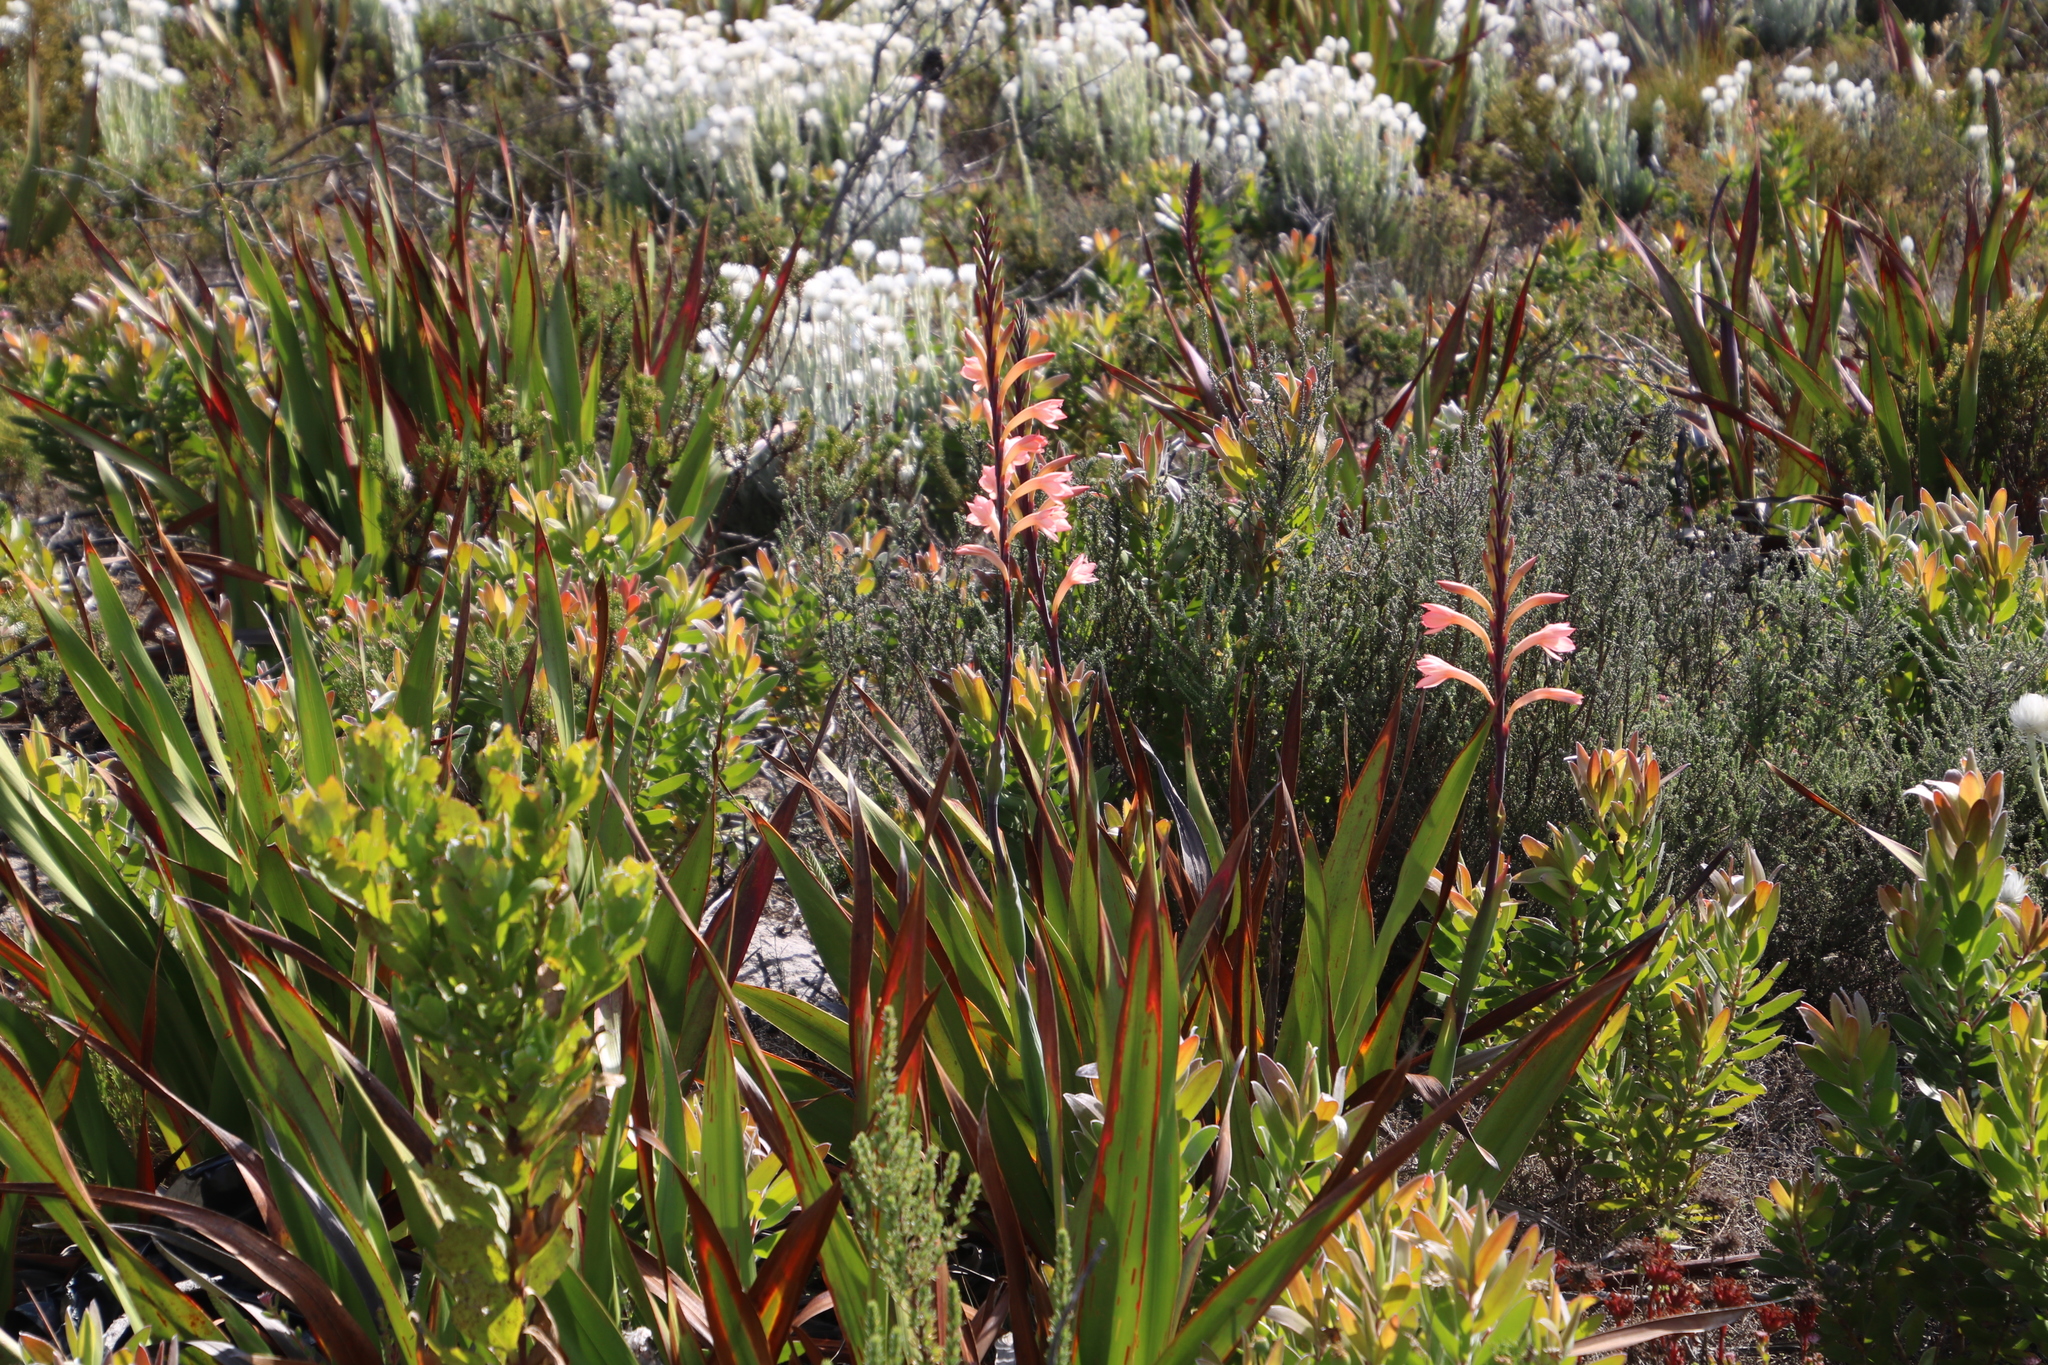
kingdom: Plantae
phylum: Tracheophyta
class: Liliopsida
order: Asparagales
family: Iridaceae
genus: Watsonia
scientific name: Watsonia tabularis
